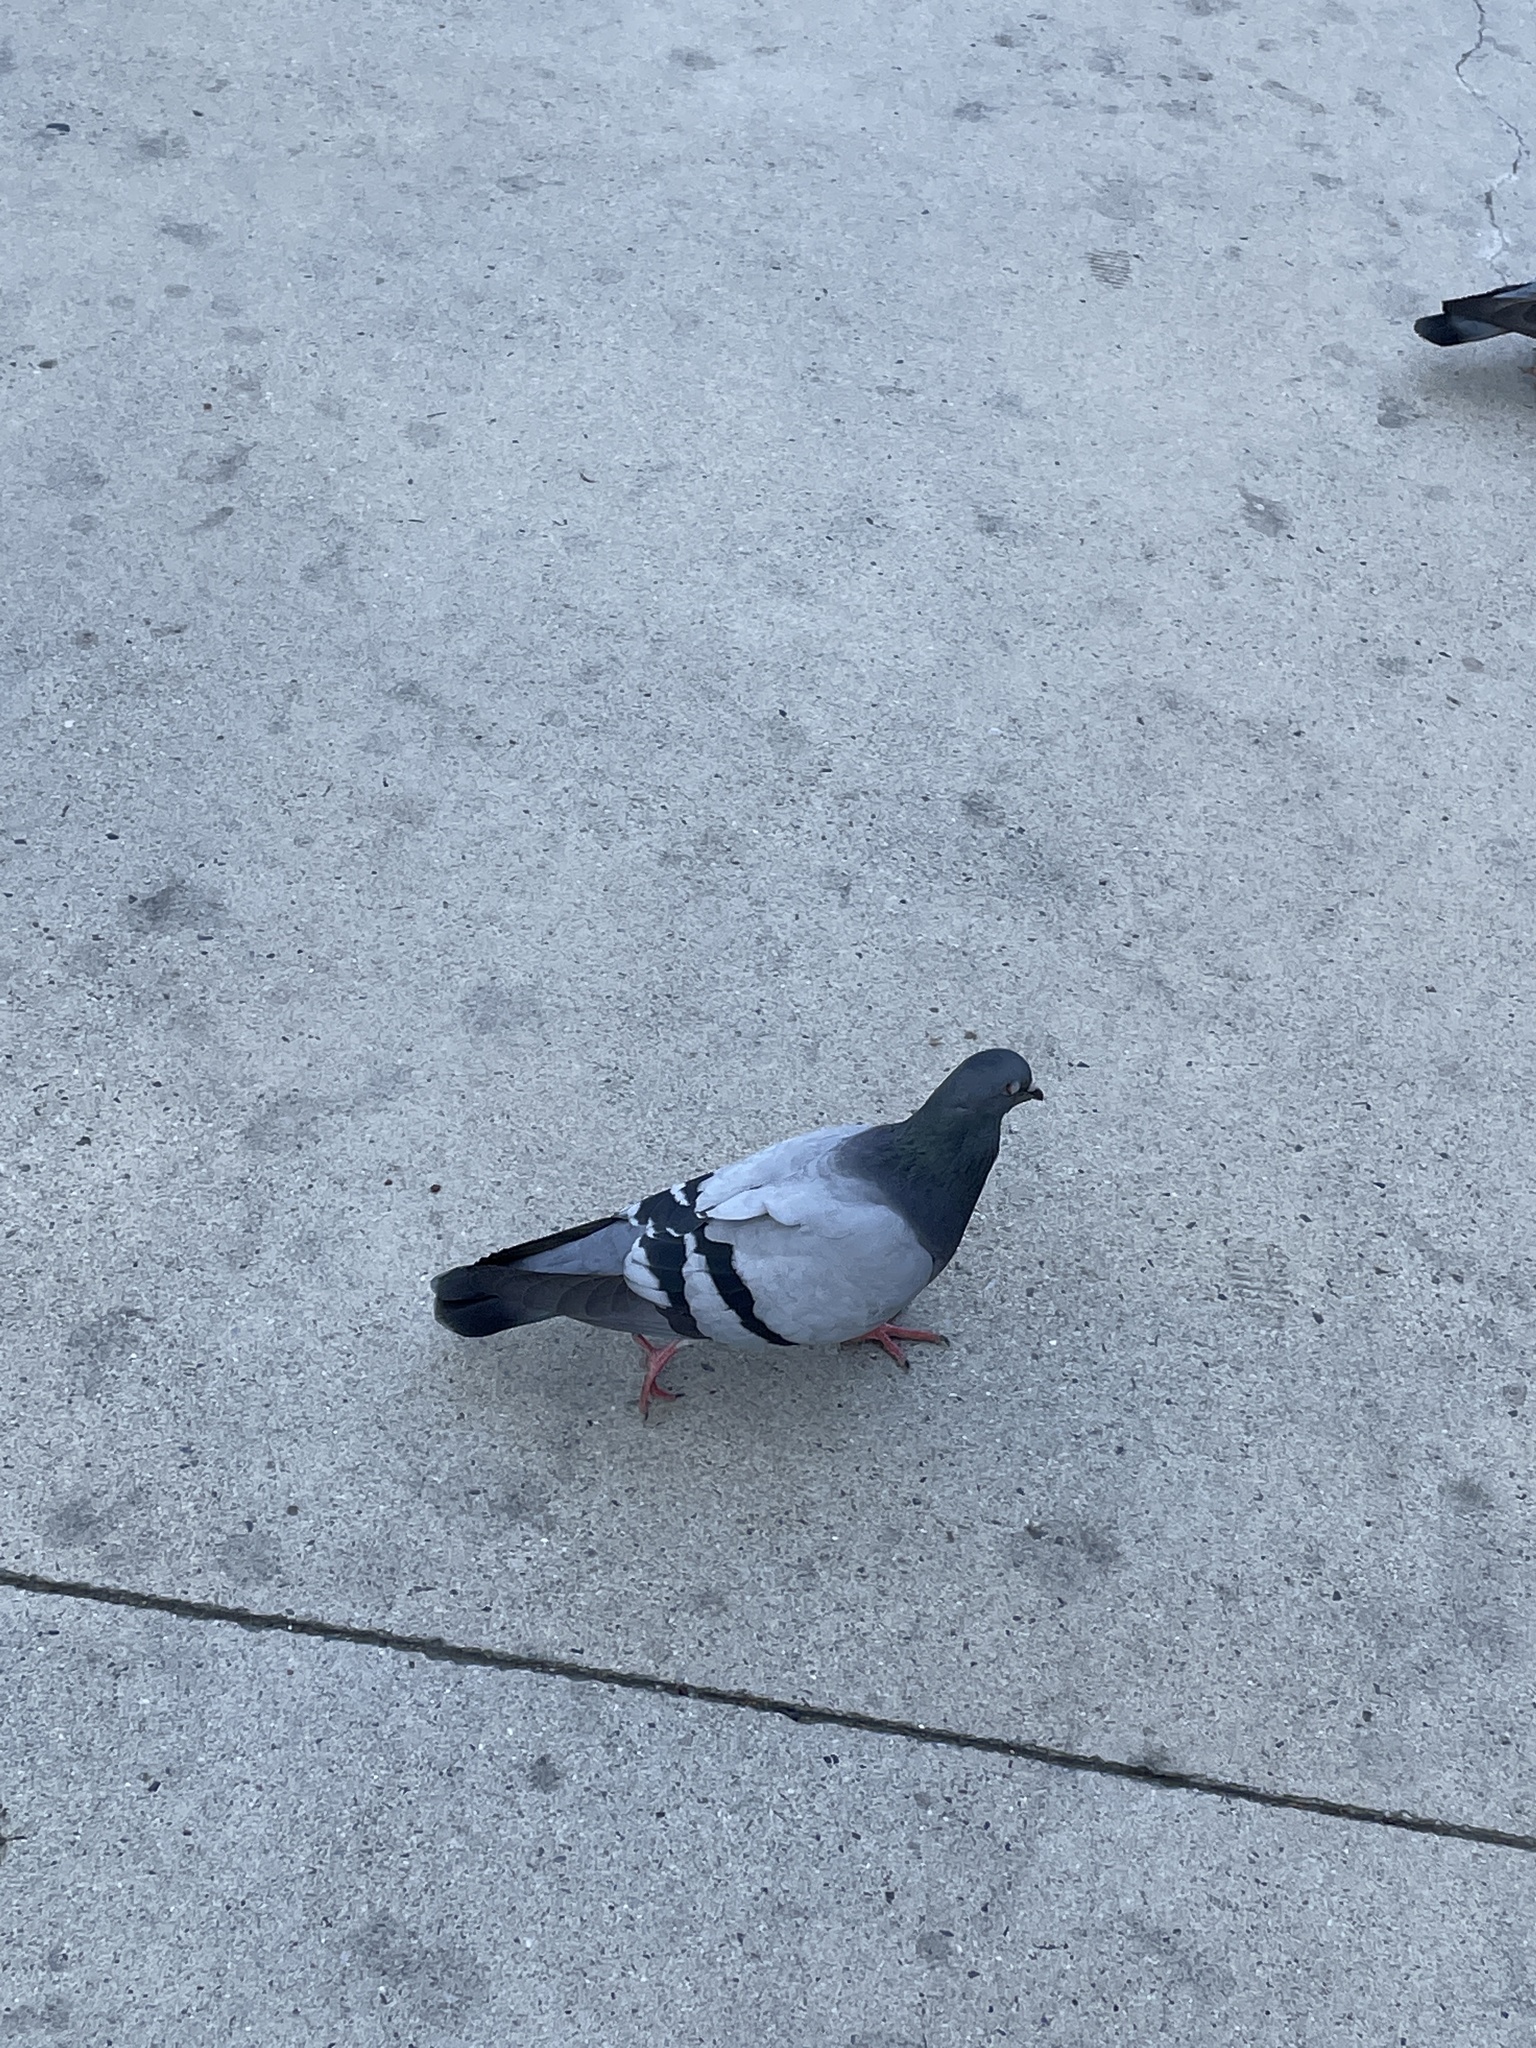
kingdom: Animalia
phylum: Chordata
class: Aves
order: Columbiformes
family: Columbidae
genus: Columba
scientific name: Columba livia
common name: Rock pigeon
